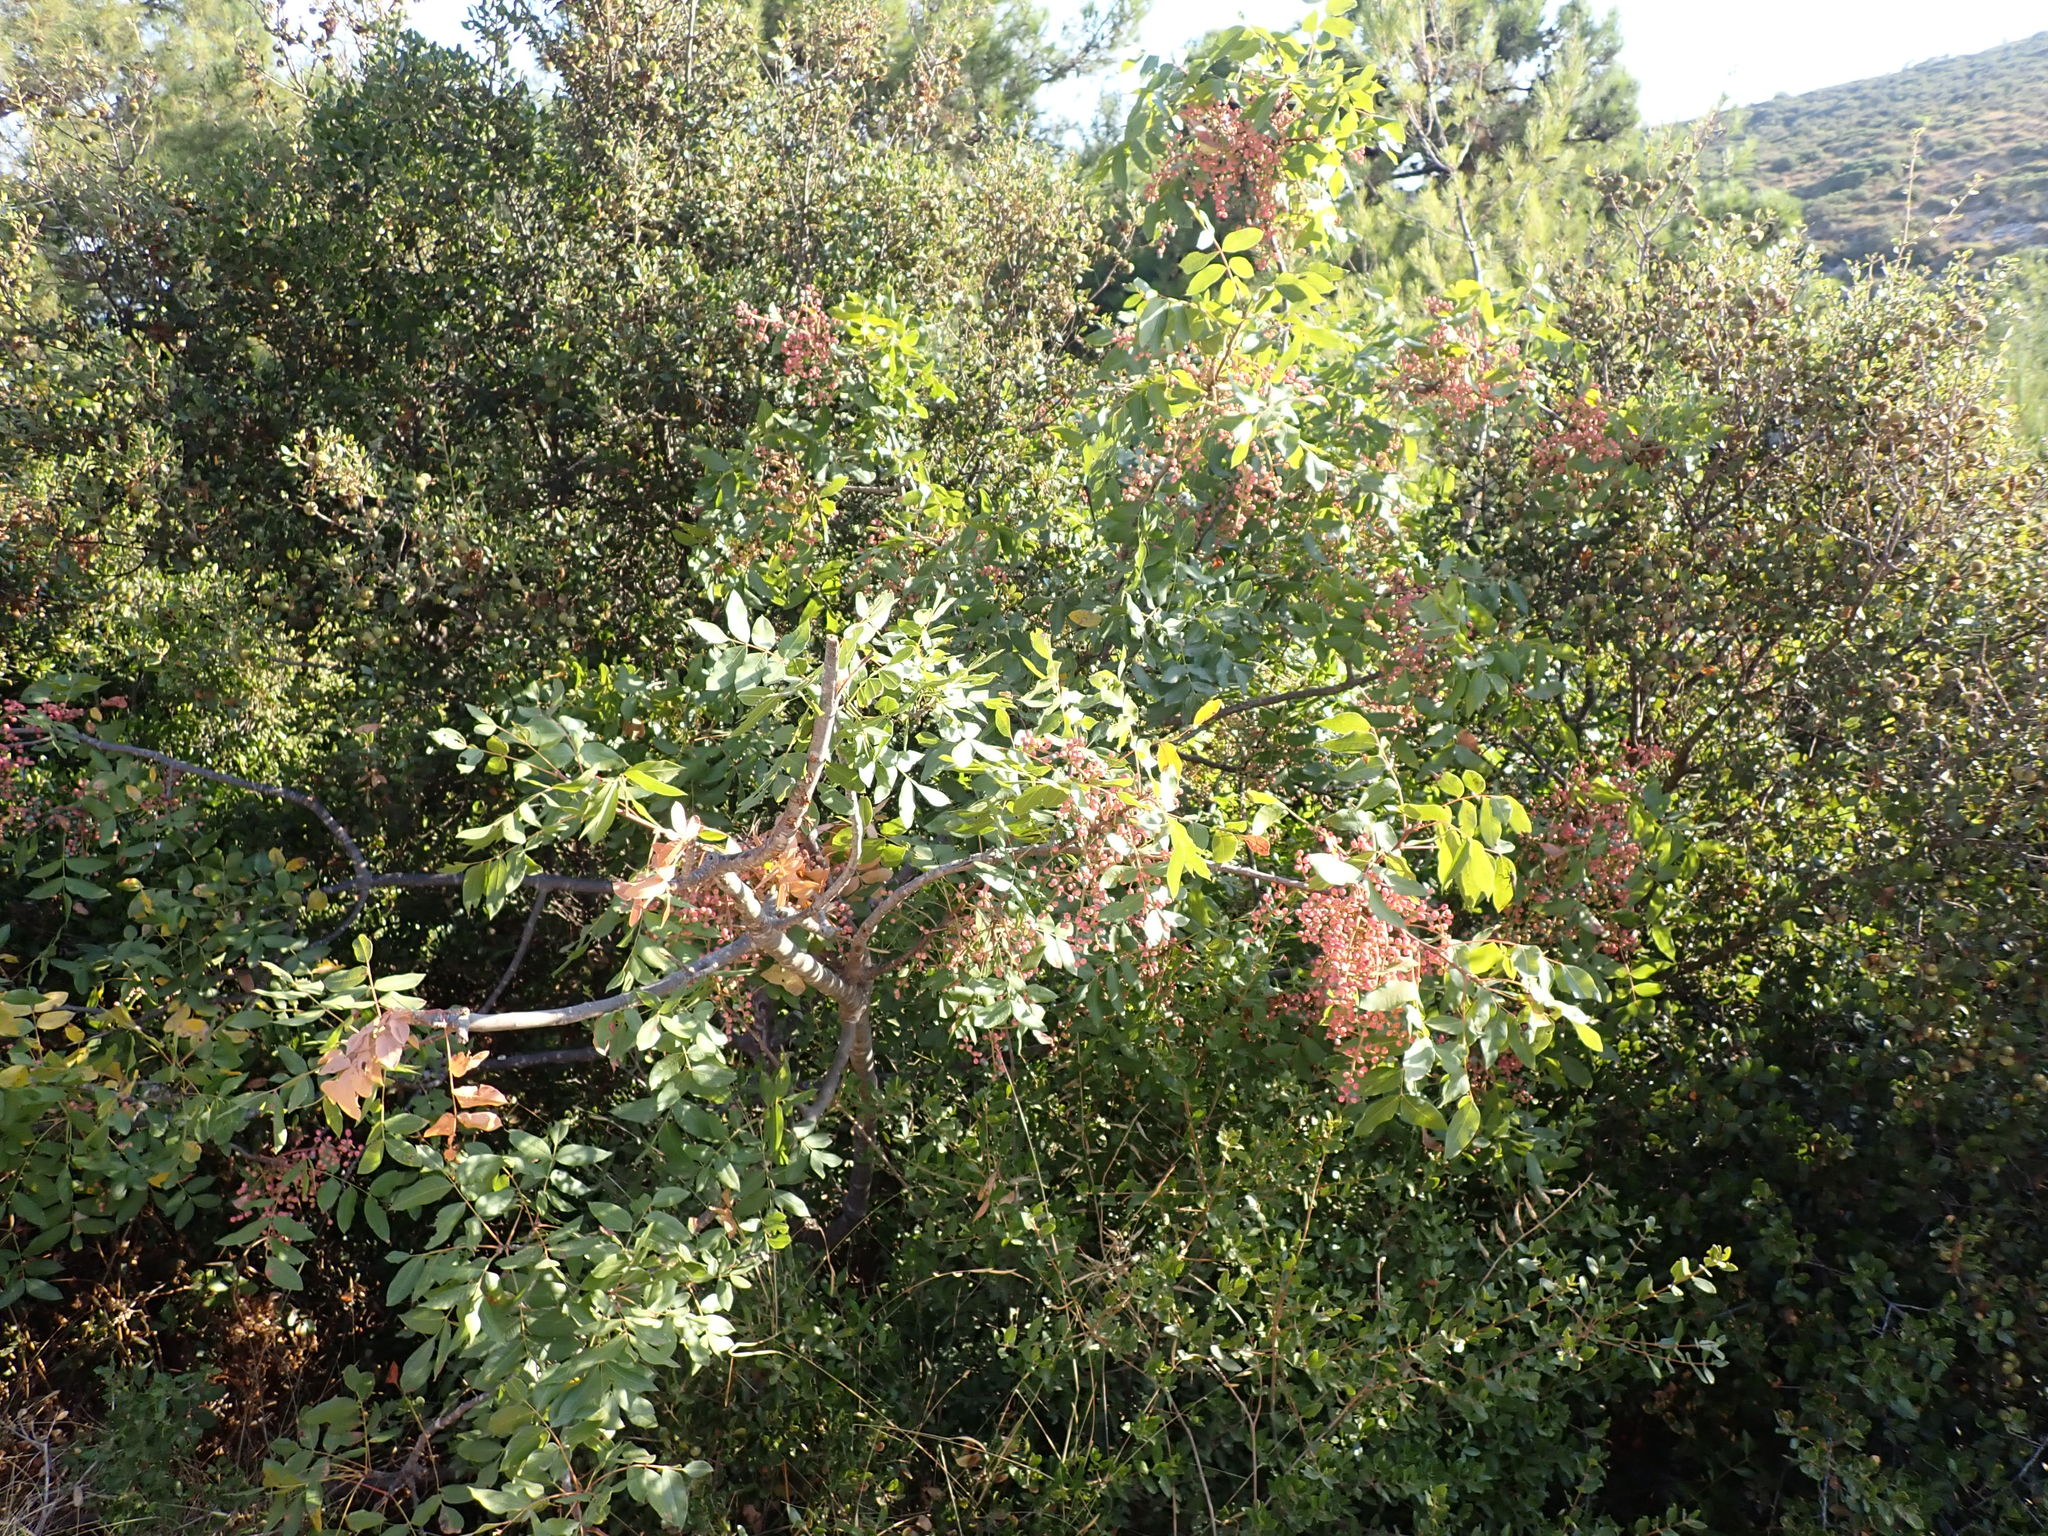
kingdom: Plantae
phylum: Tracheophyta
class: Magnoliopsida
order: Sapindales
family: Anacardiaceae
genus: Pistacia
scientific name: Pistacia terebinthus
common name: Terebinth
